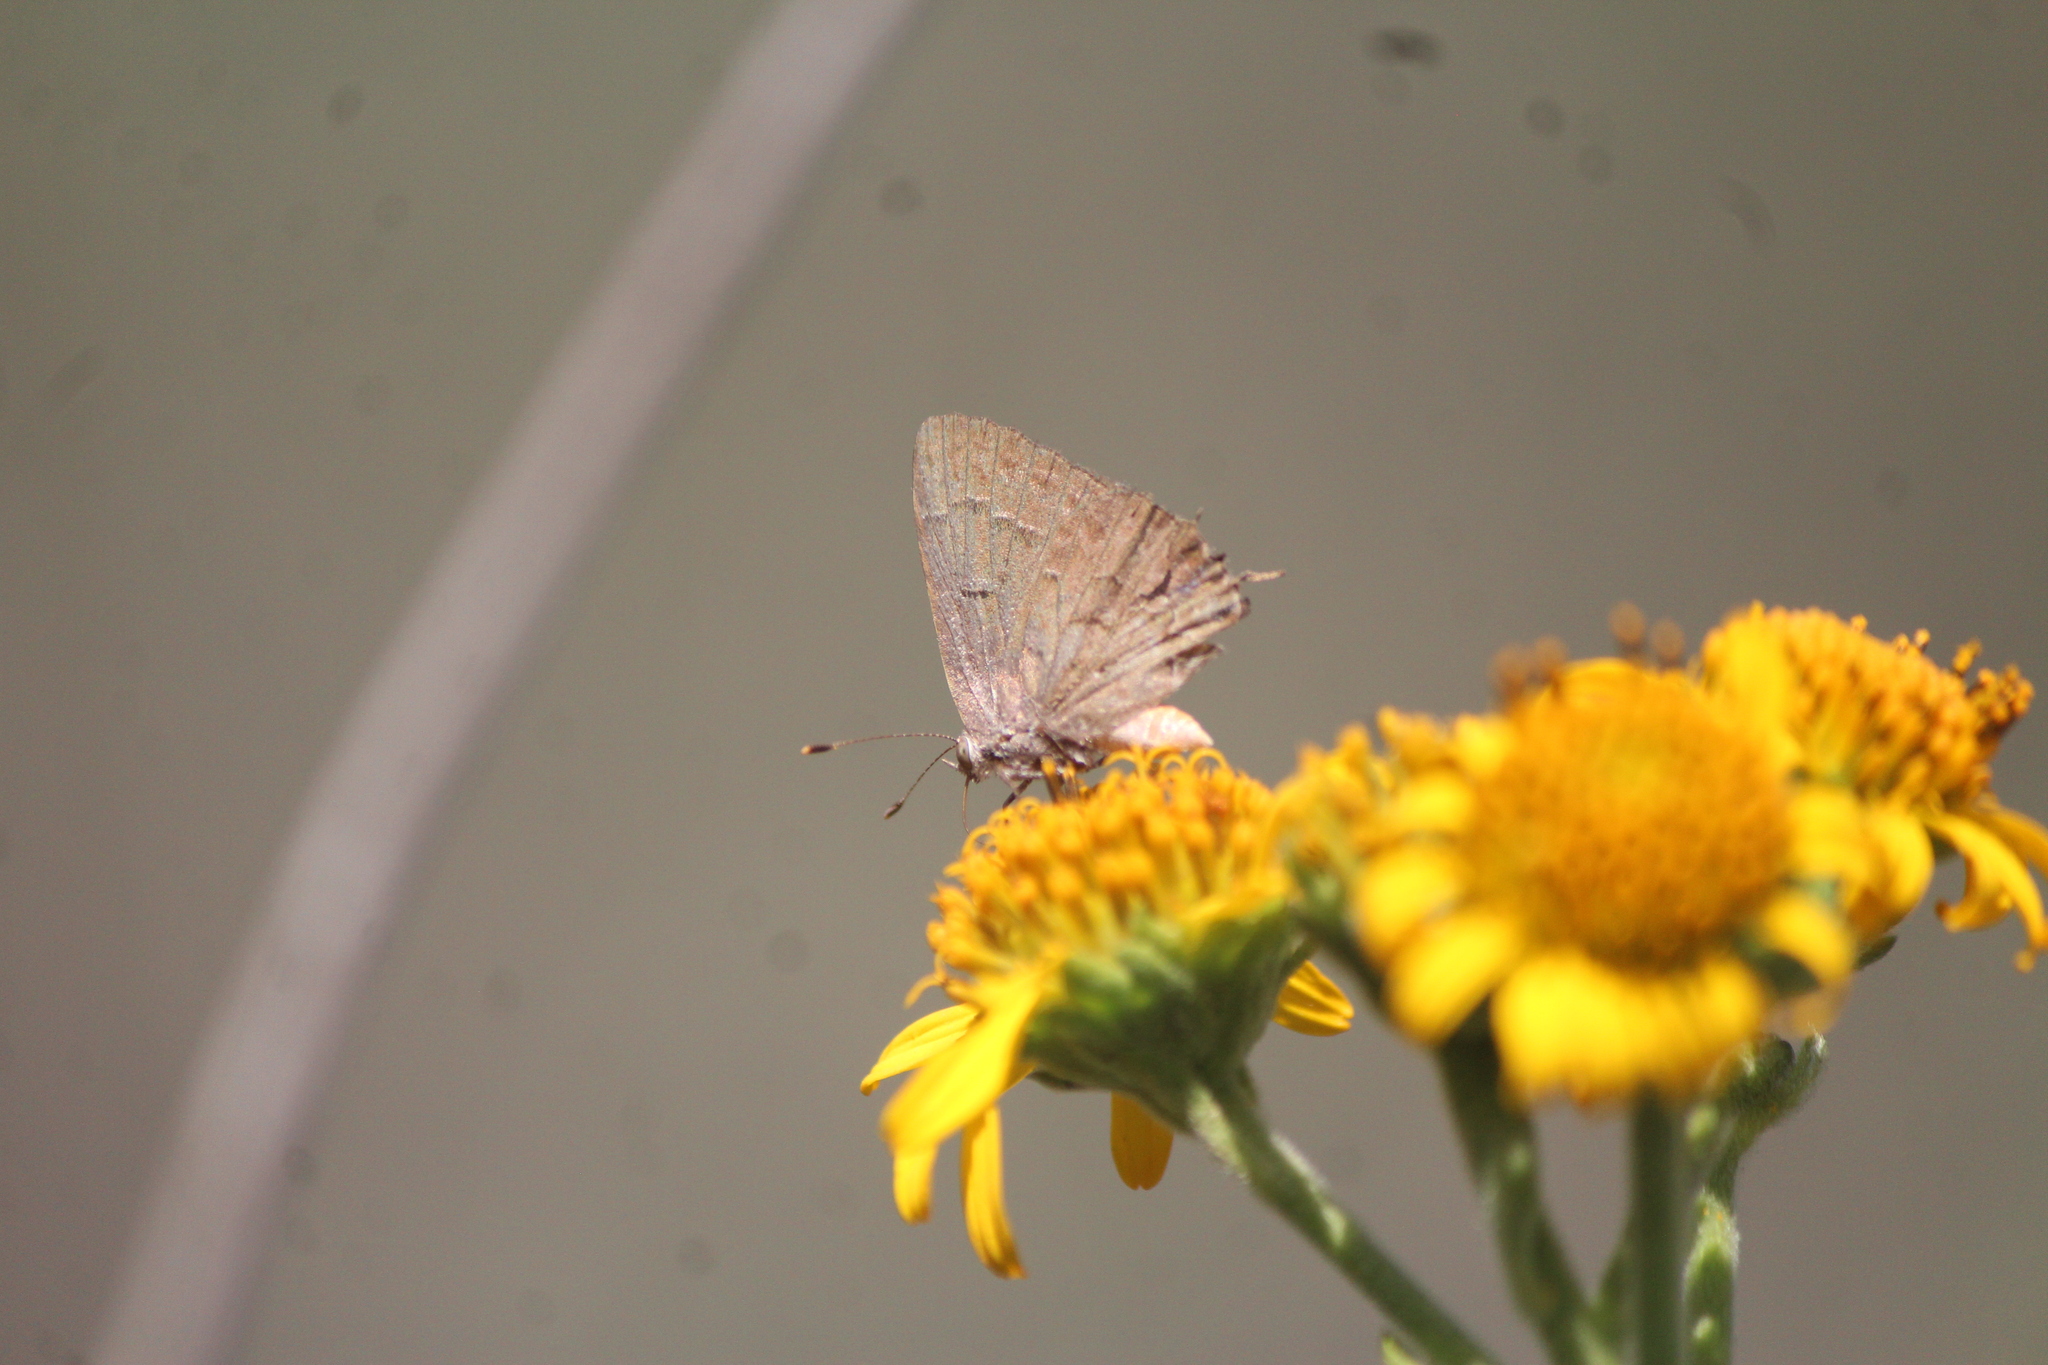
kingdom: Animalia
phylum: Arthropoda
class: Insecta
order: Lepidoptera
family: Lycaenidae
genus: Ministrymon
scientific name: Ministrymon leda
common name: Leda ministreak
